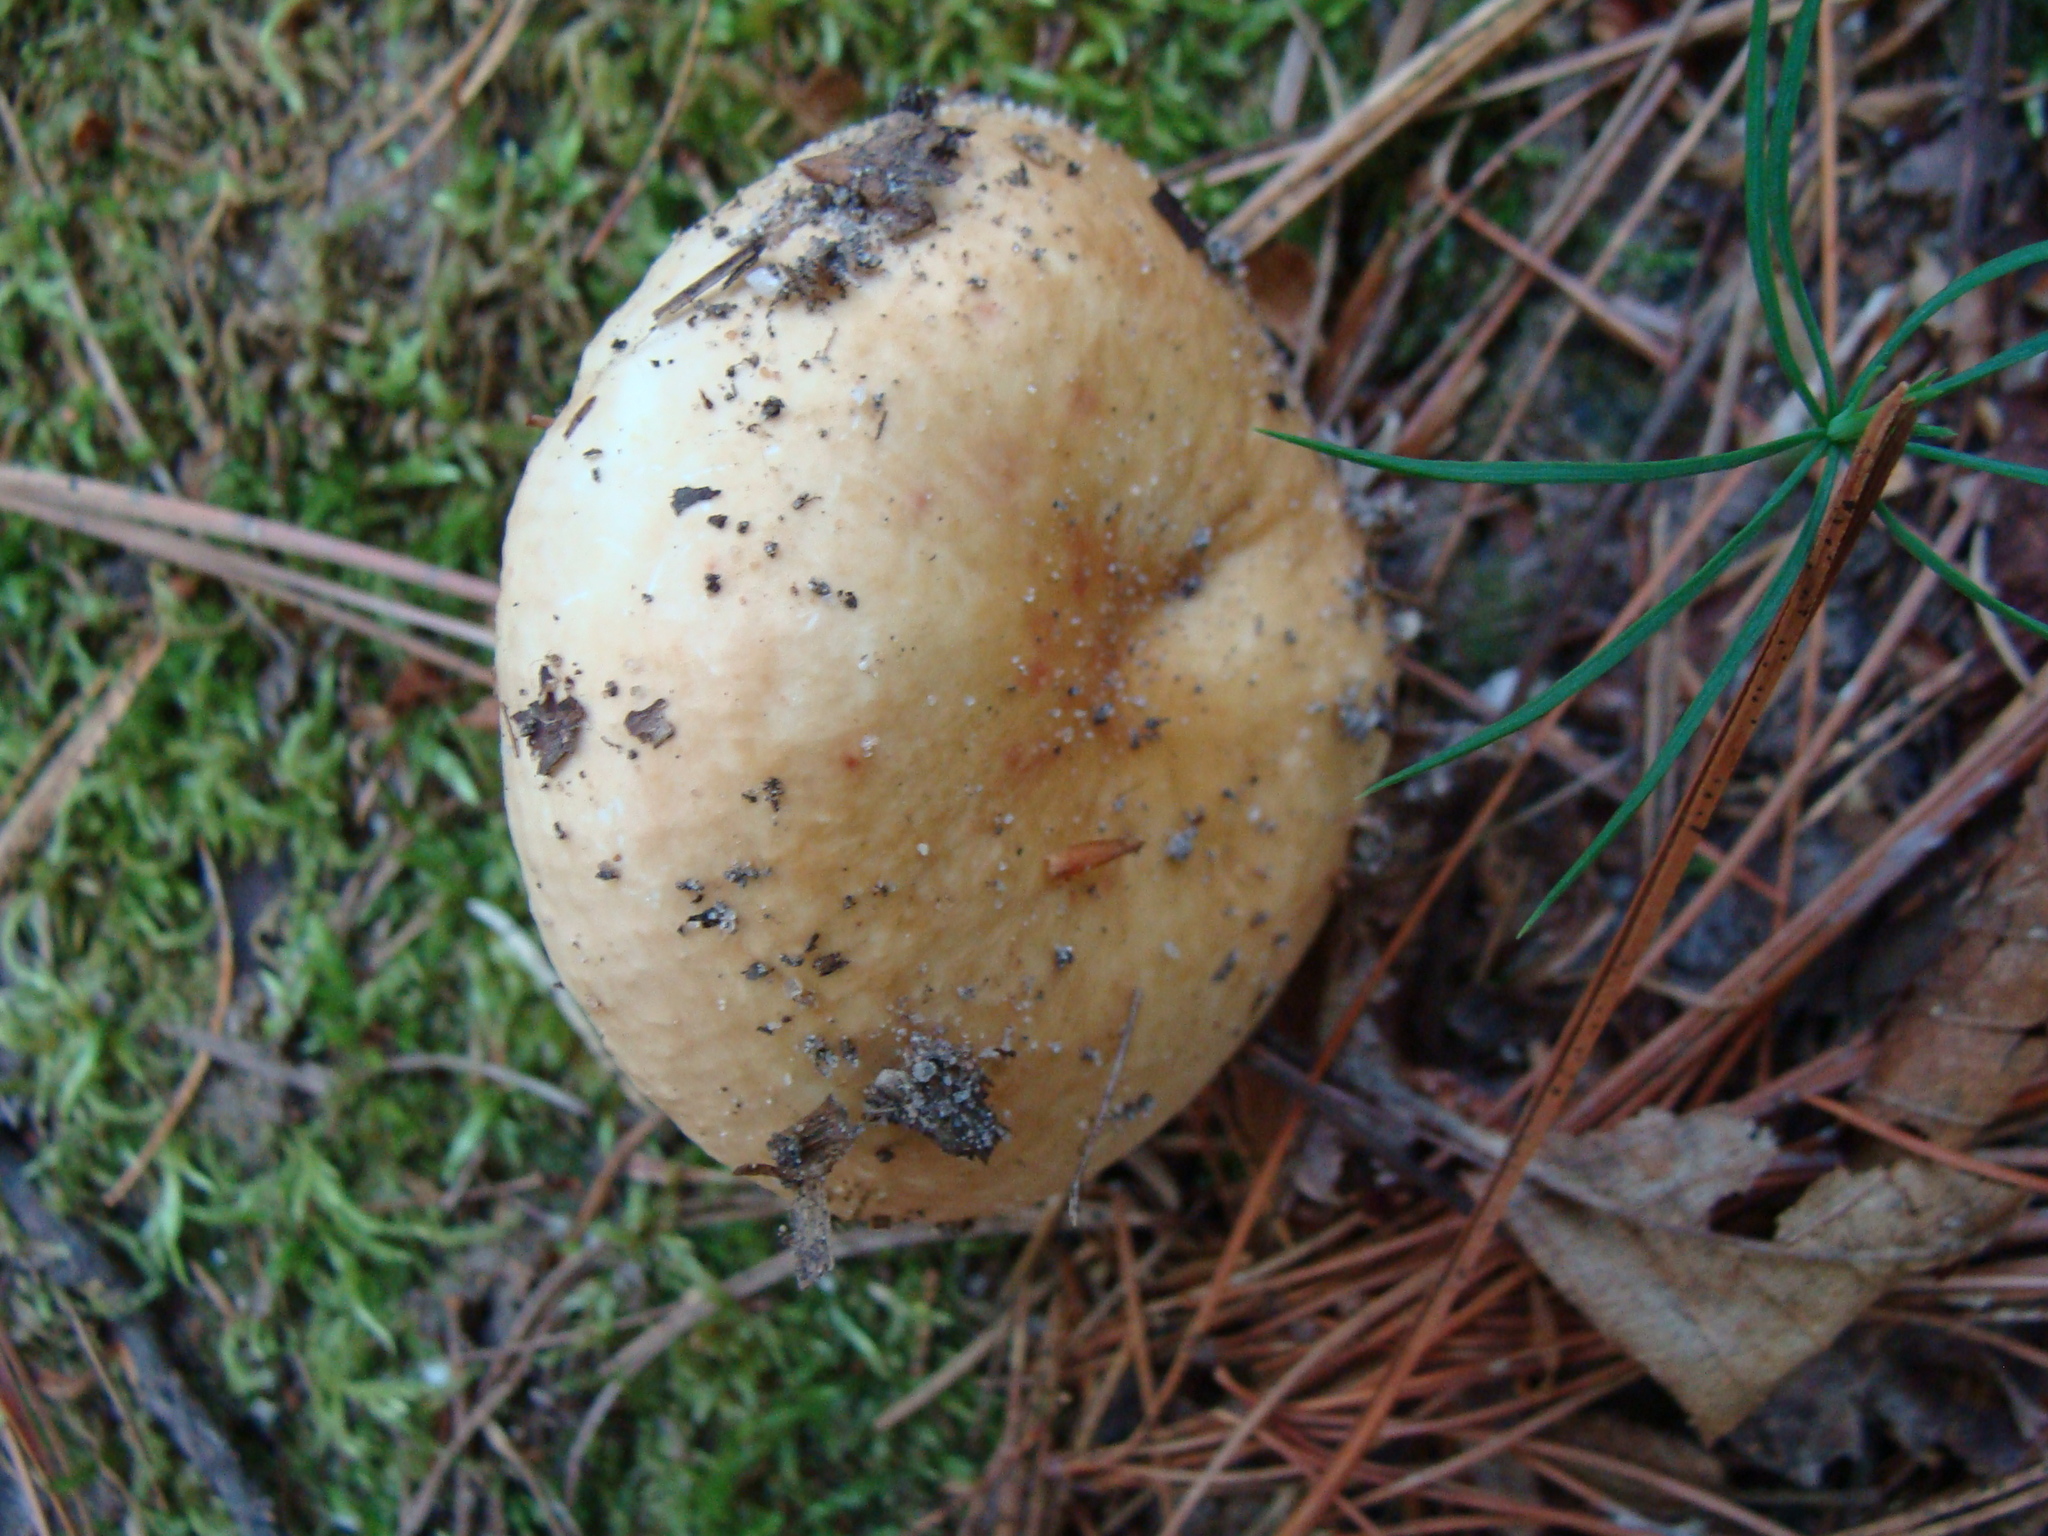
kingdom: Fungi
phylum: Basidiomycota
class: Agaricomycetes
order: Russulales
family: Russulaceae
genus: Russula
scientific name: Russula
